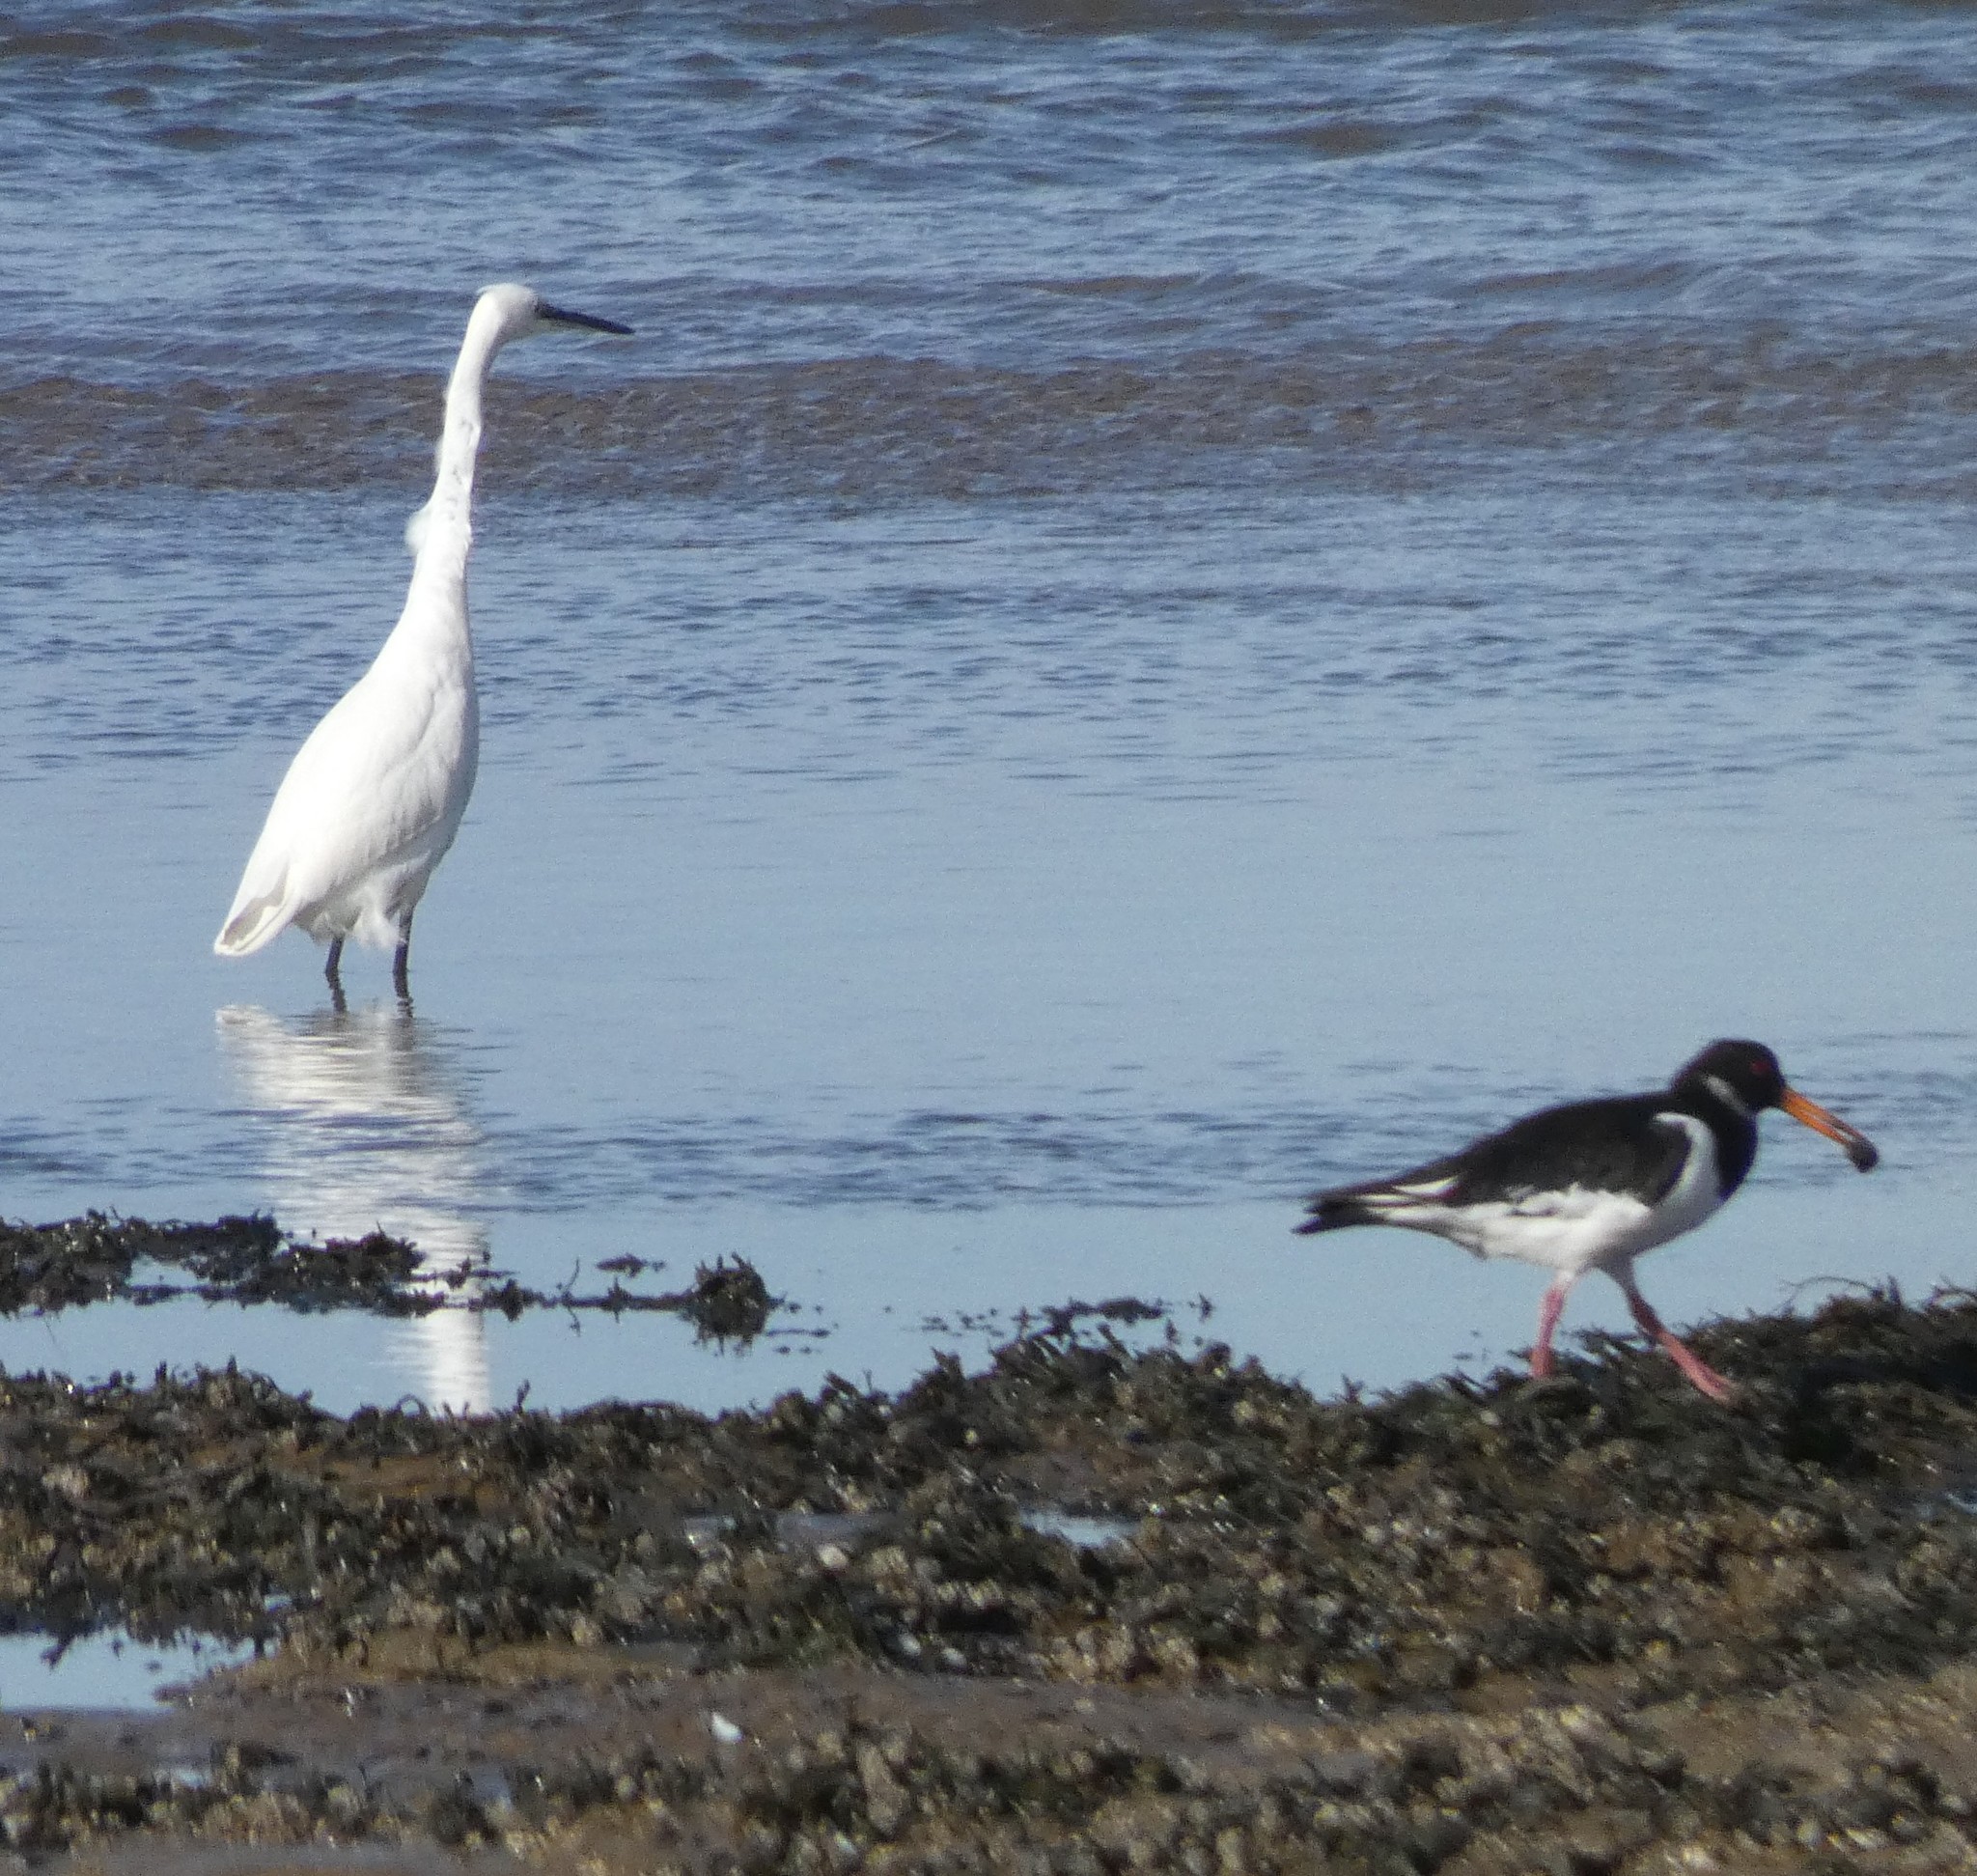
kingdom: Animalia
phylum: Chordata
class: Aves
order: Pelecaniformes
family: Ardeidae
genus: Egretta
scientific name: Egretta garzetta
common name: Little egret
